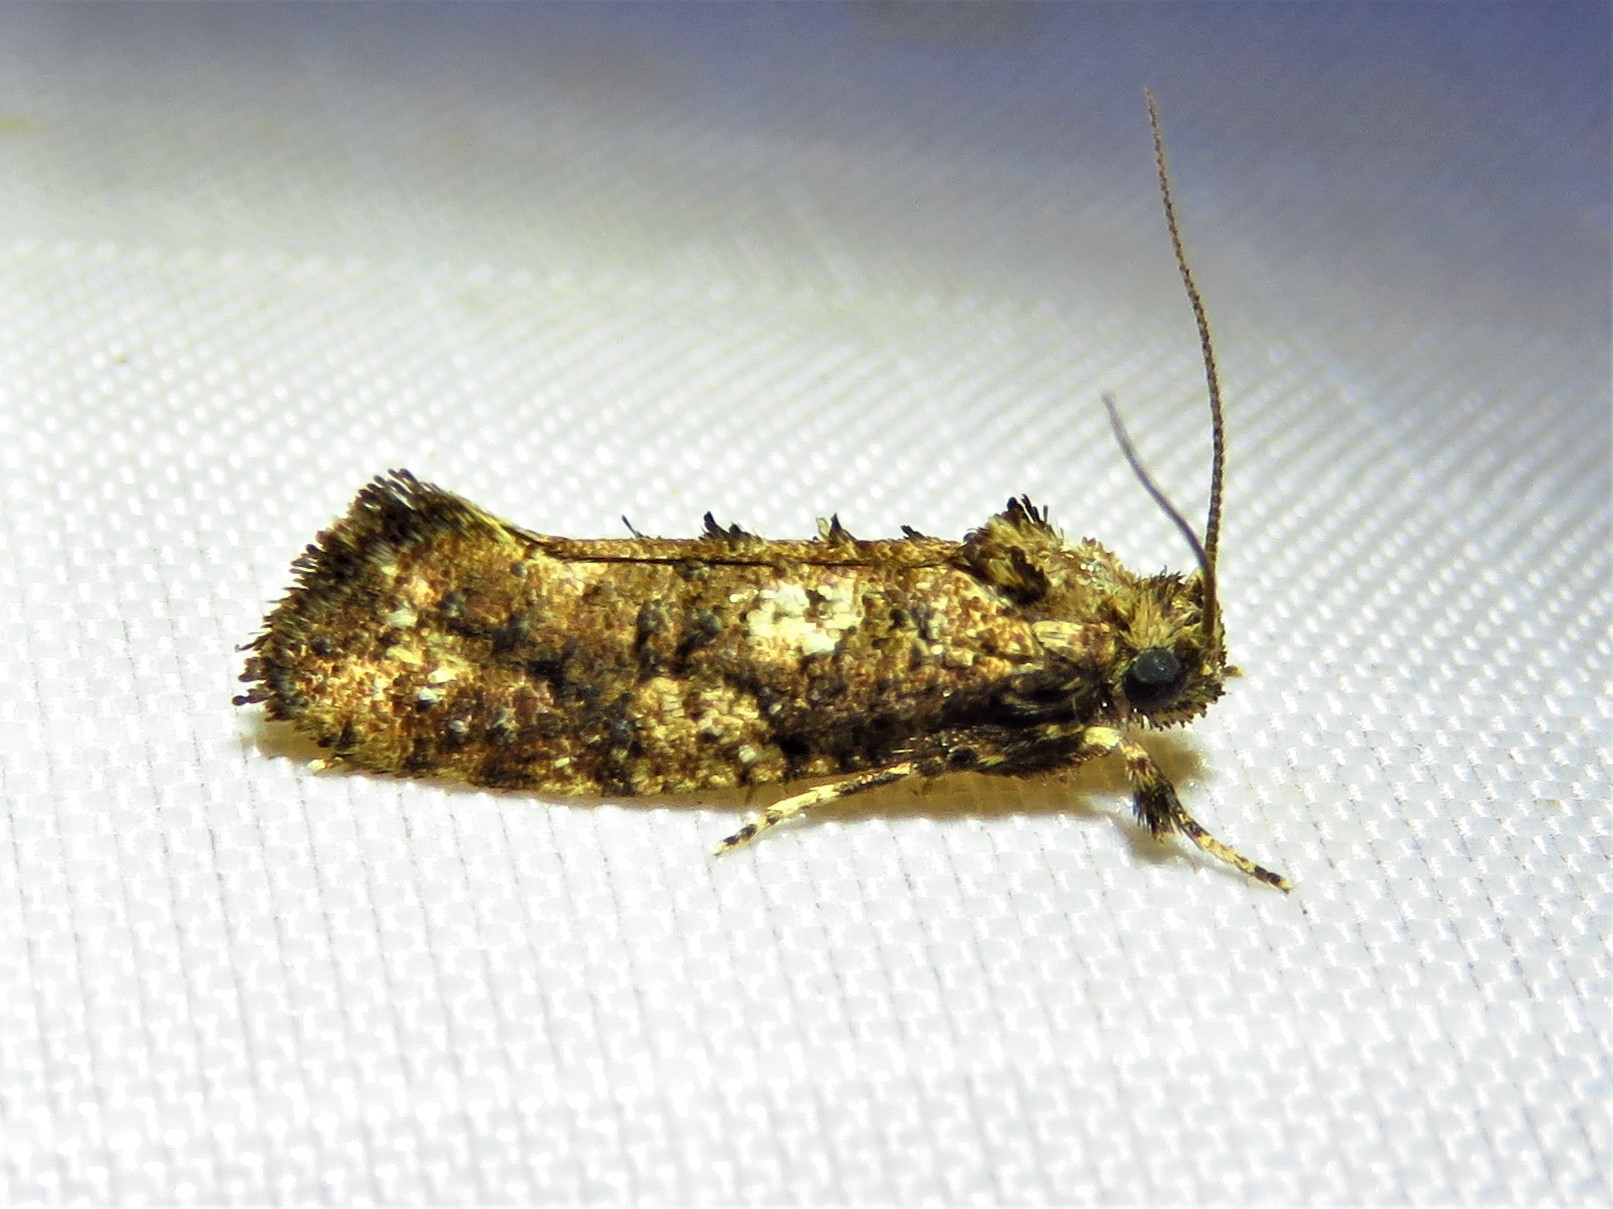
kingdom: Animalia
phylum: Arthropoda
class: Insecta
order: Lepidoptera
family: Tineidae
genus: Acrolophus
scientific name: Acrolophus cressoni
